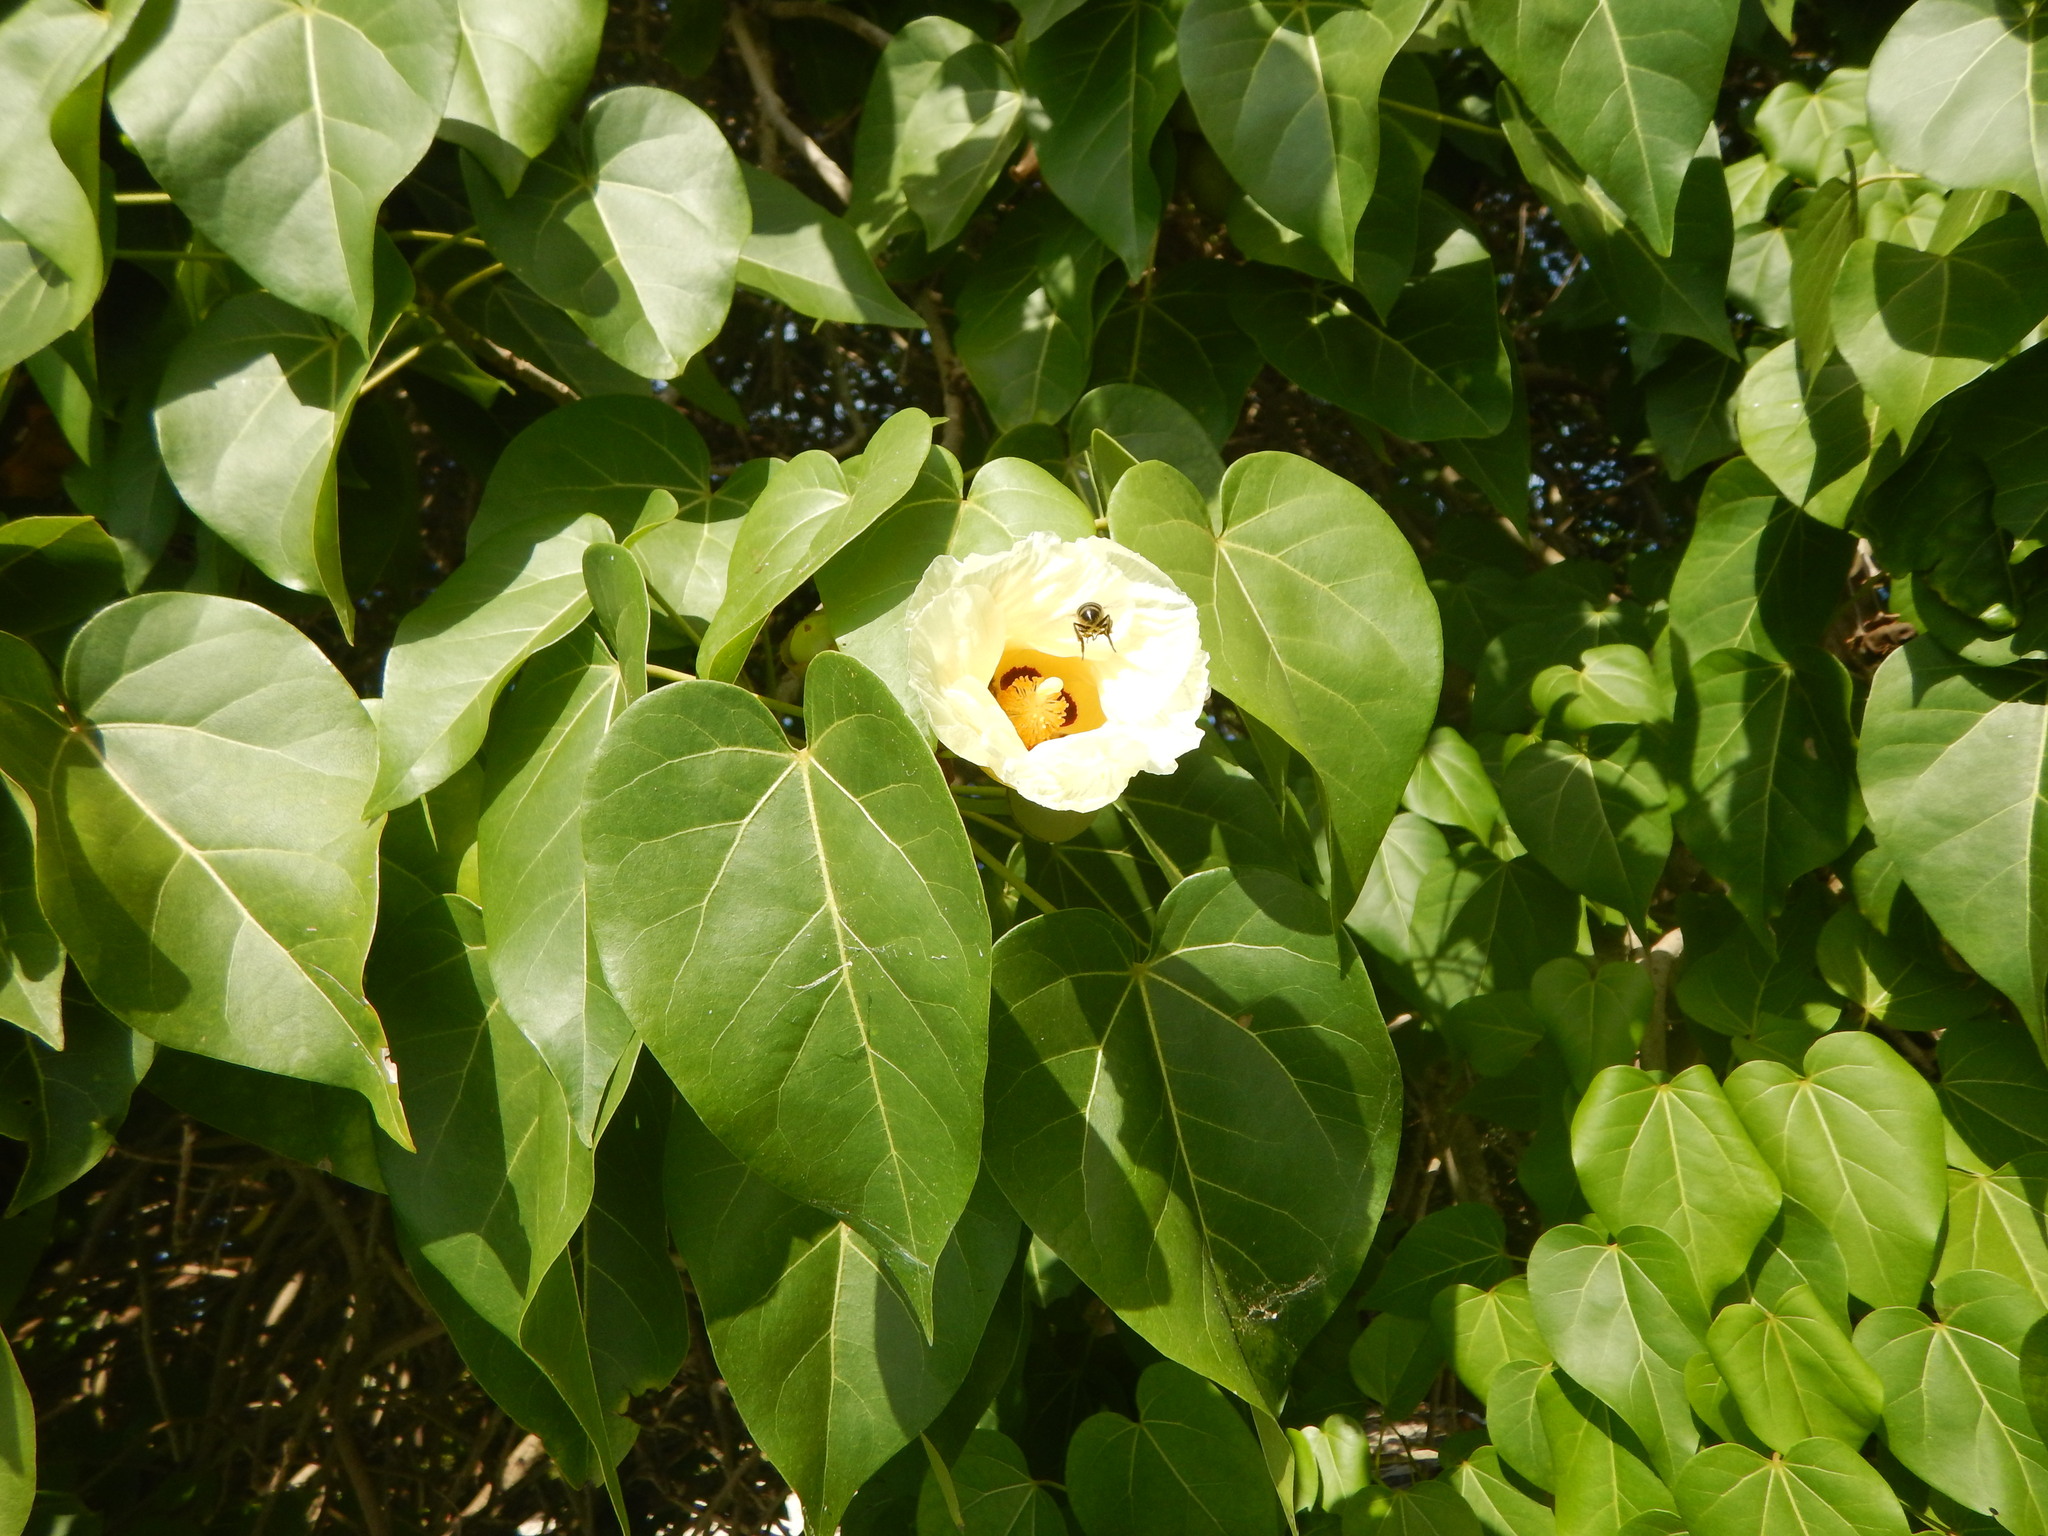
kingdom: Plantae
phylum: Tracheophyta
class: Magnoliopsida
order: Malvales
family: Malvaceae
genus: Thespesia
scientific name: Thespesia populnea
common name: Seaside mahoe
